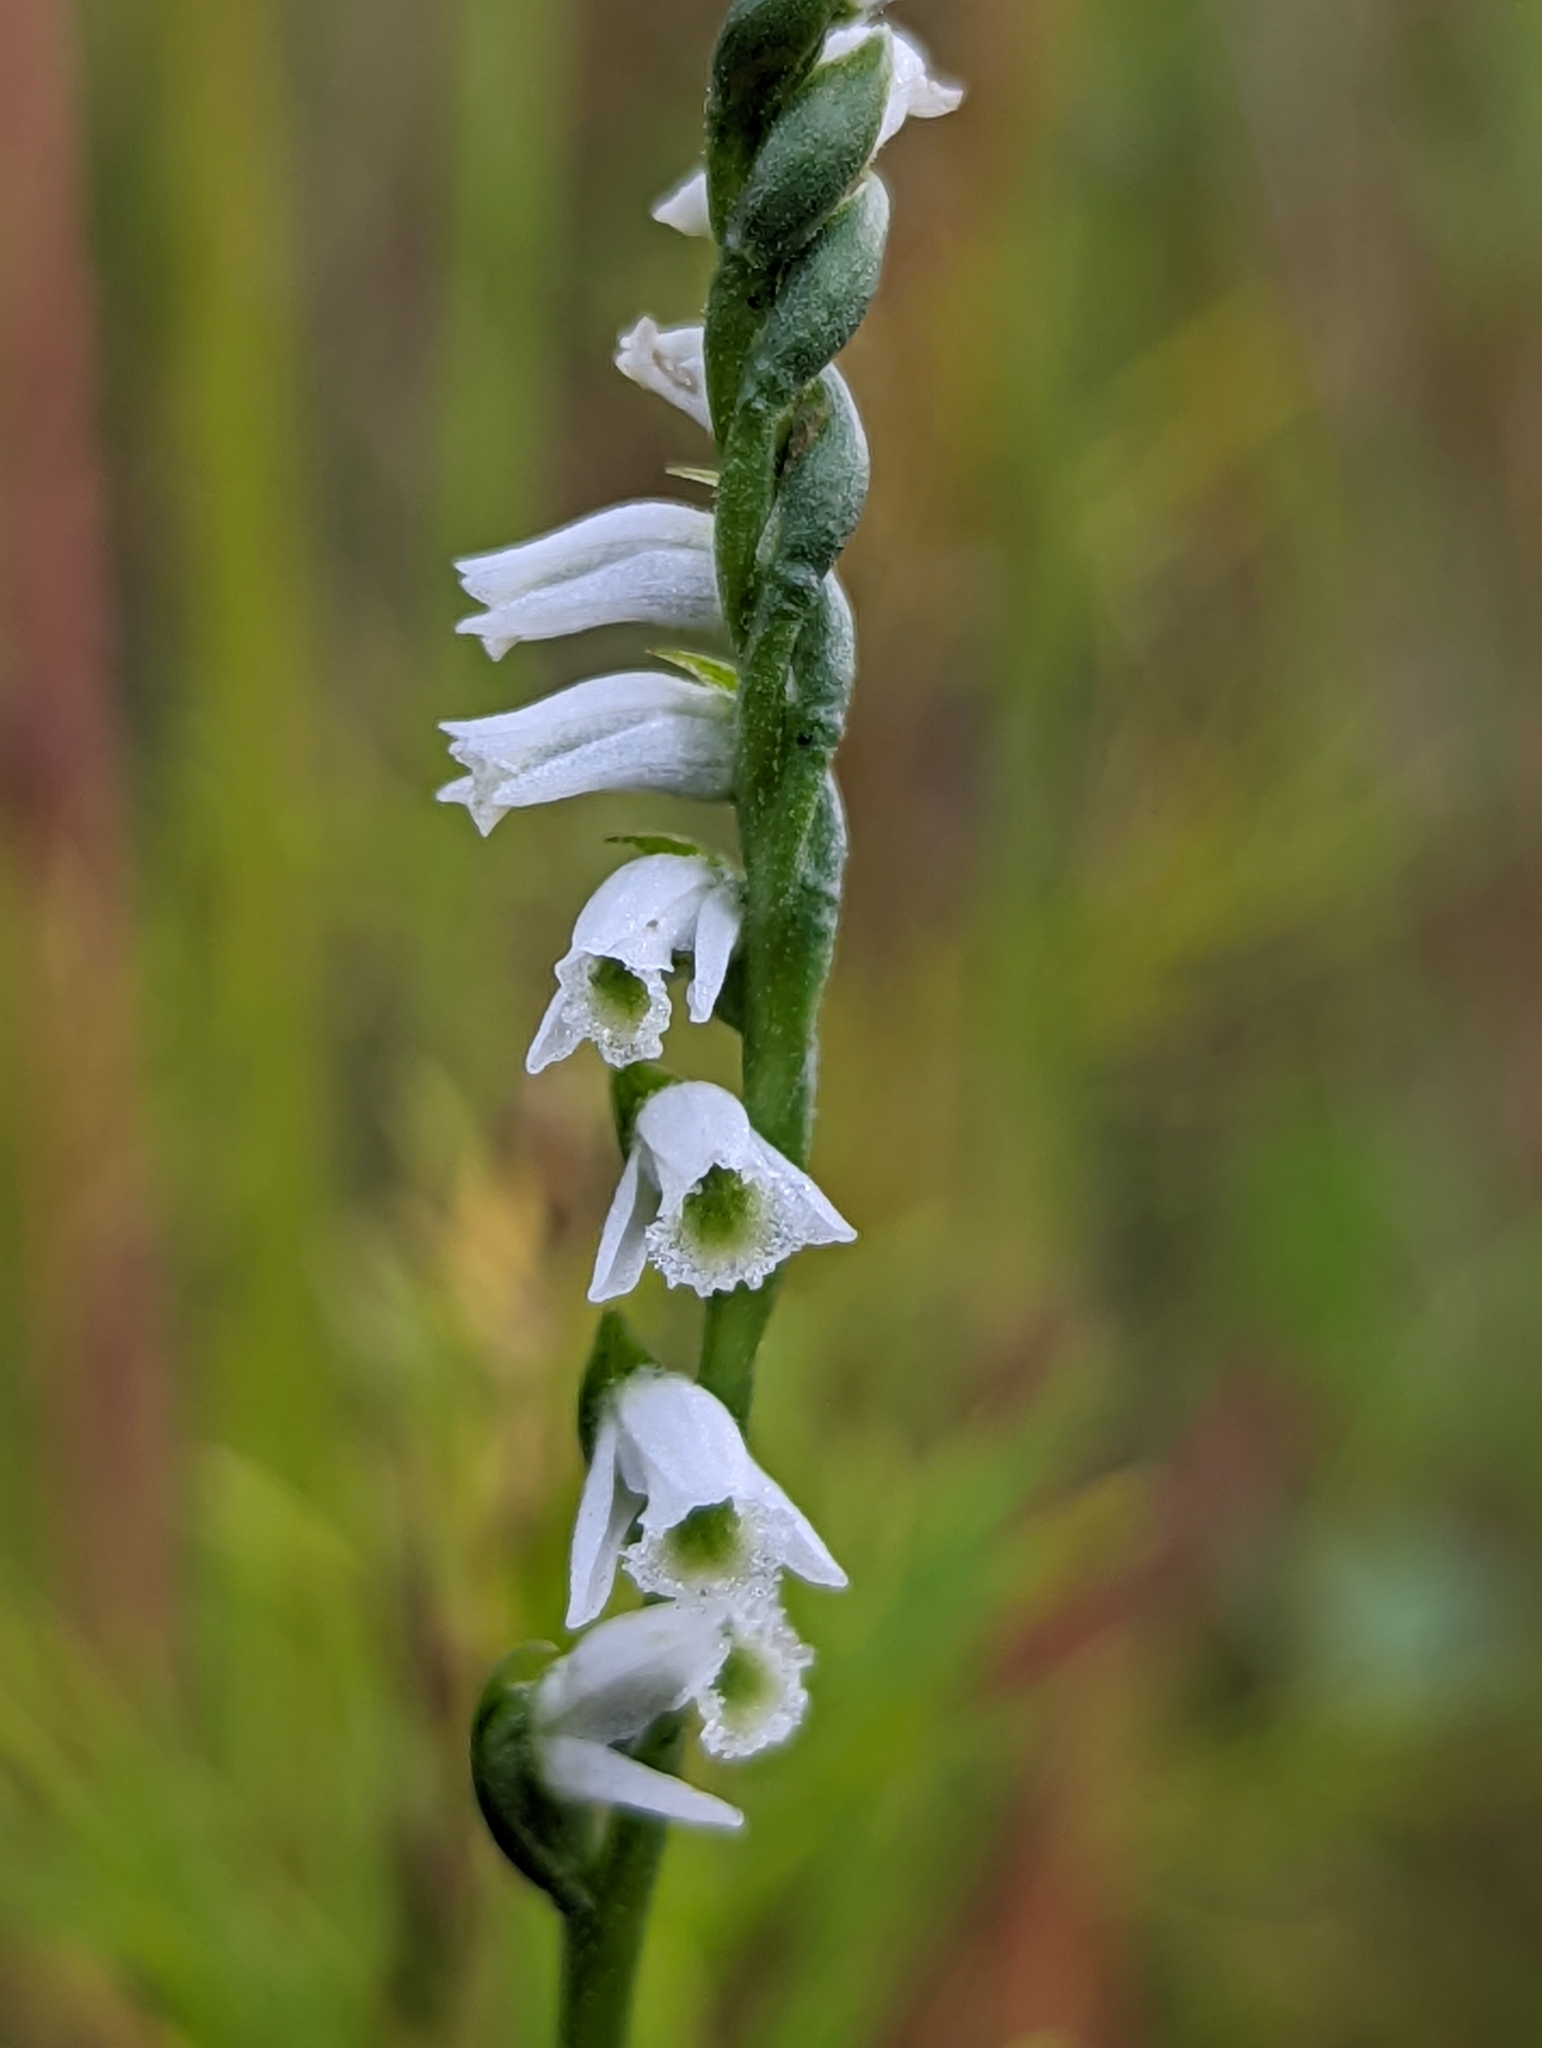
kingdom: Plantae
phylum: Tracheophyta
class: Liliopsida
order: Asparagales
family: Orchidaceae
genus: Spiranthes
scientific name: Spiranthes lacera
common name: Northern slender ladies'-tresses
